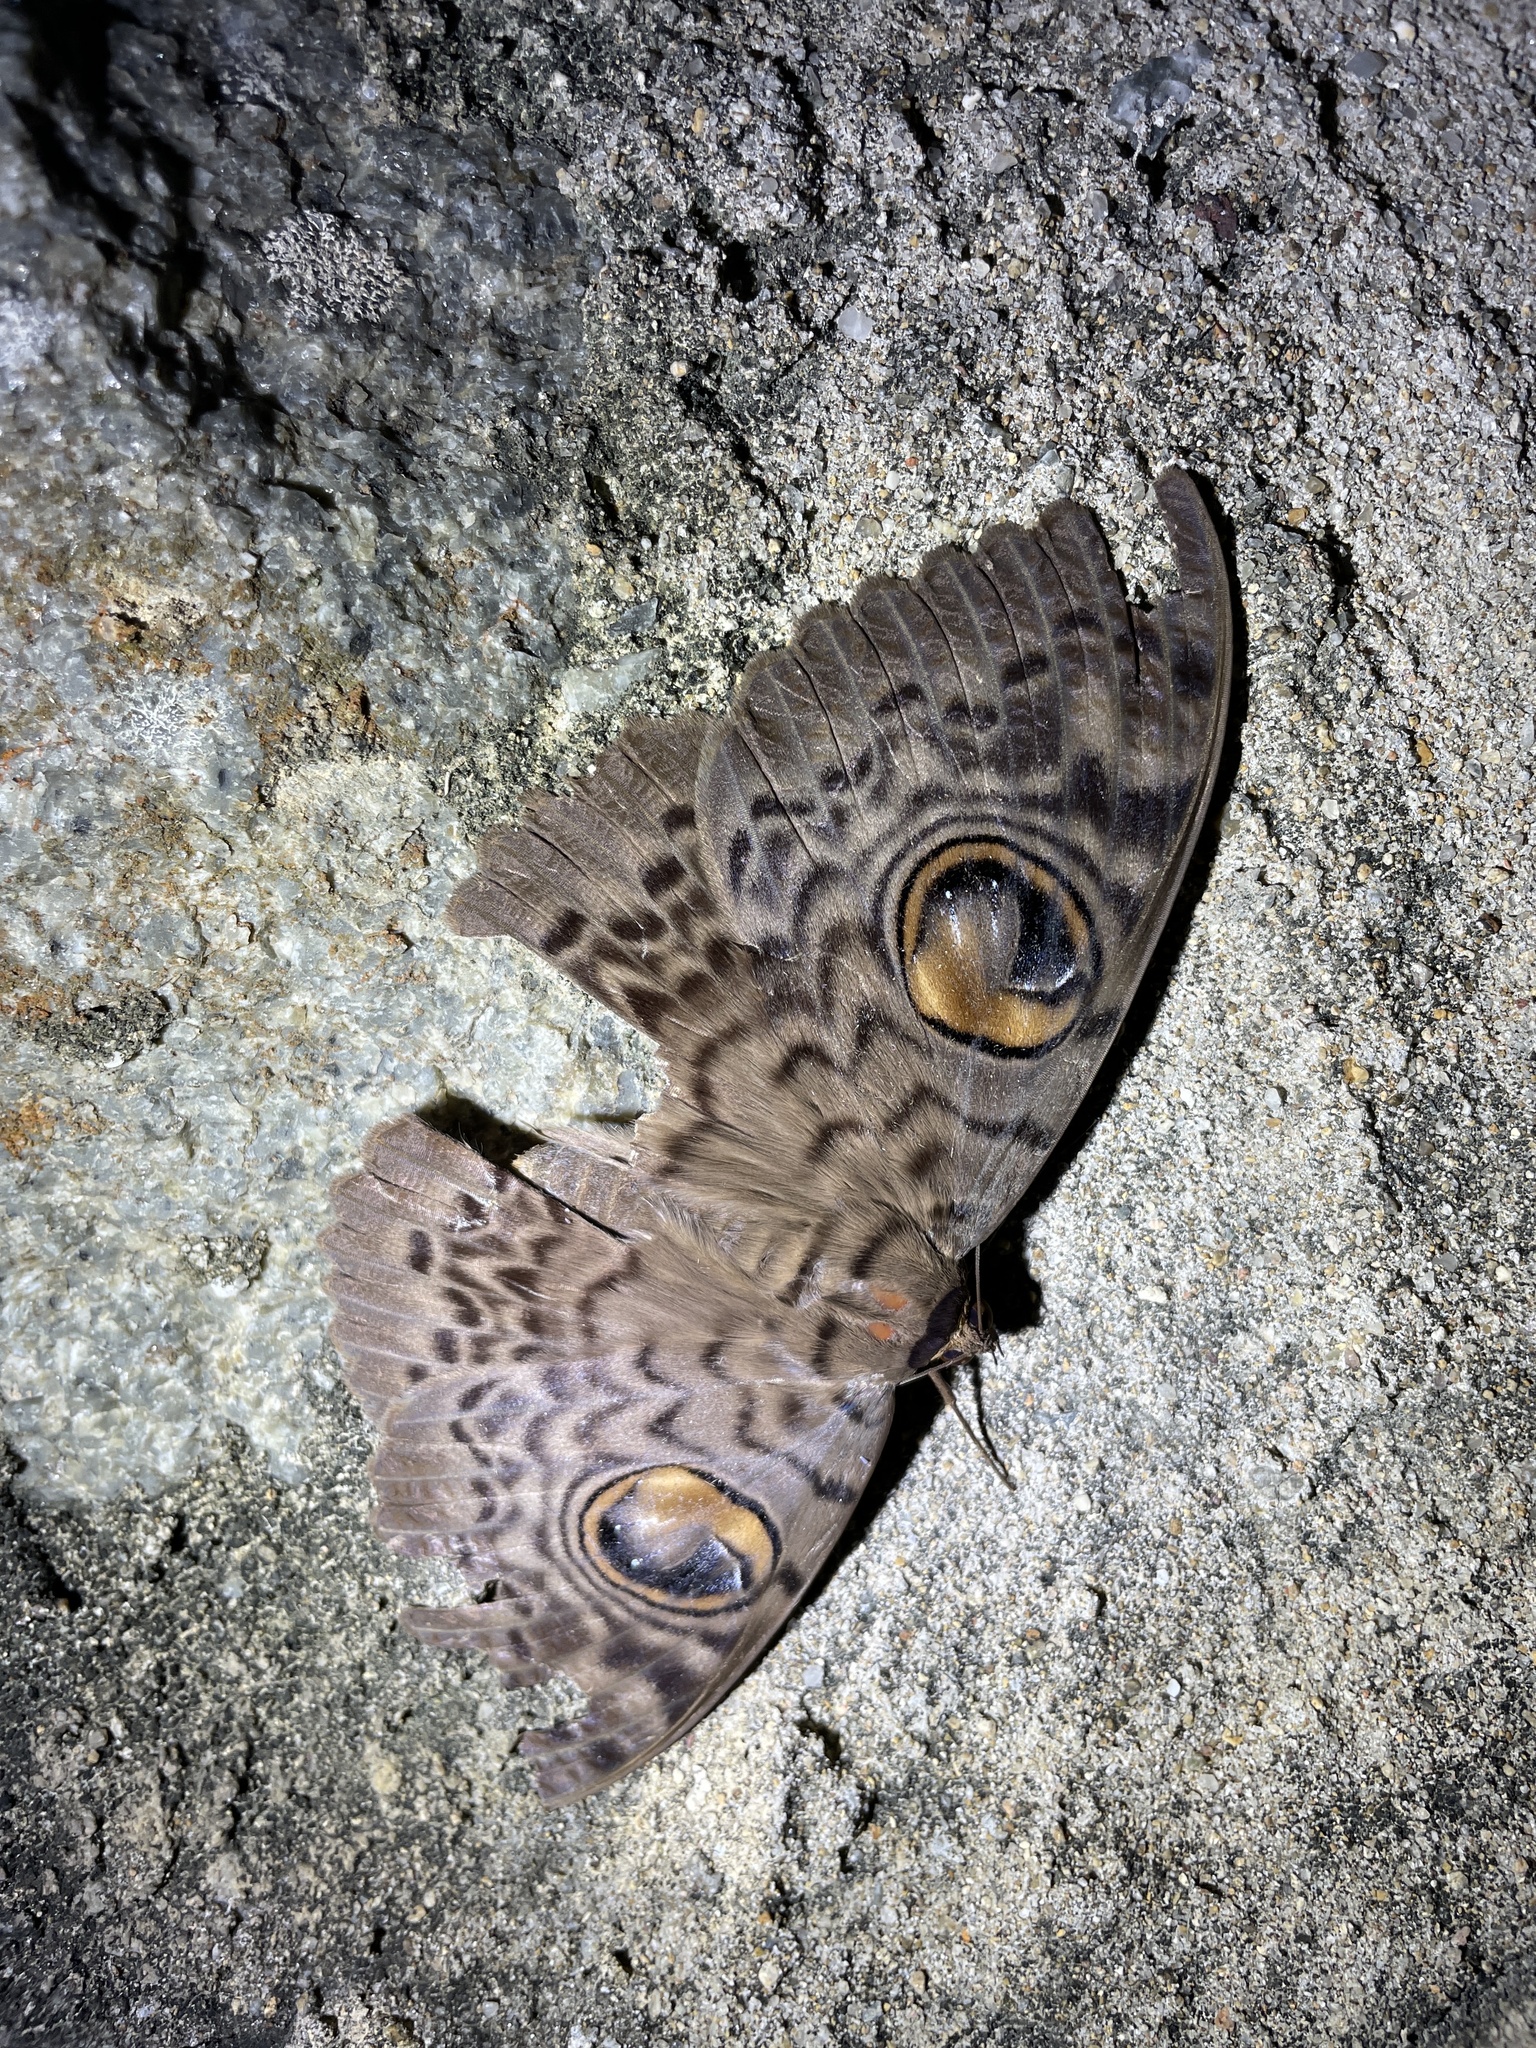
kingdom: Animalia
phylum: Arthropoda
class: Insecta
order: Lepidoptera
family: Erebidae
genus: Erebus
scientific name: Erebus macrops
